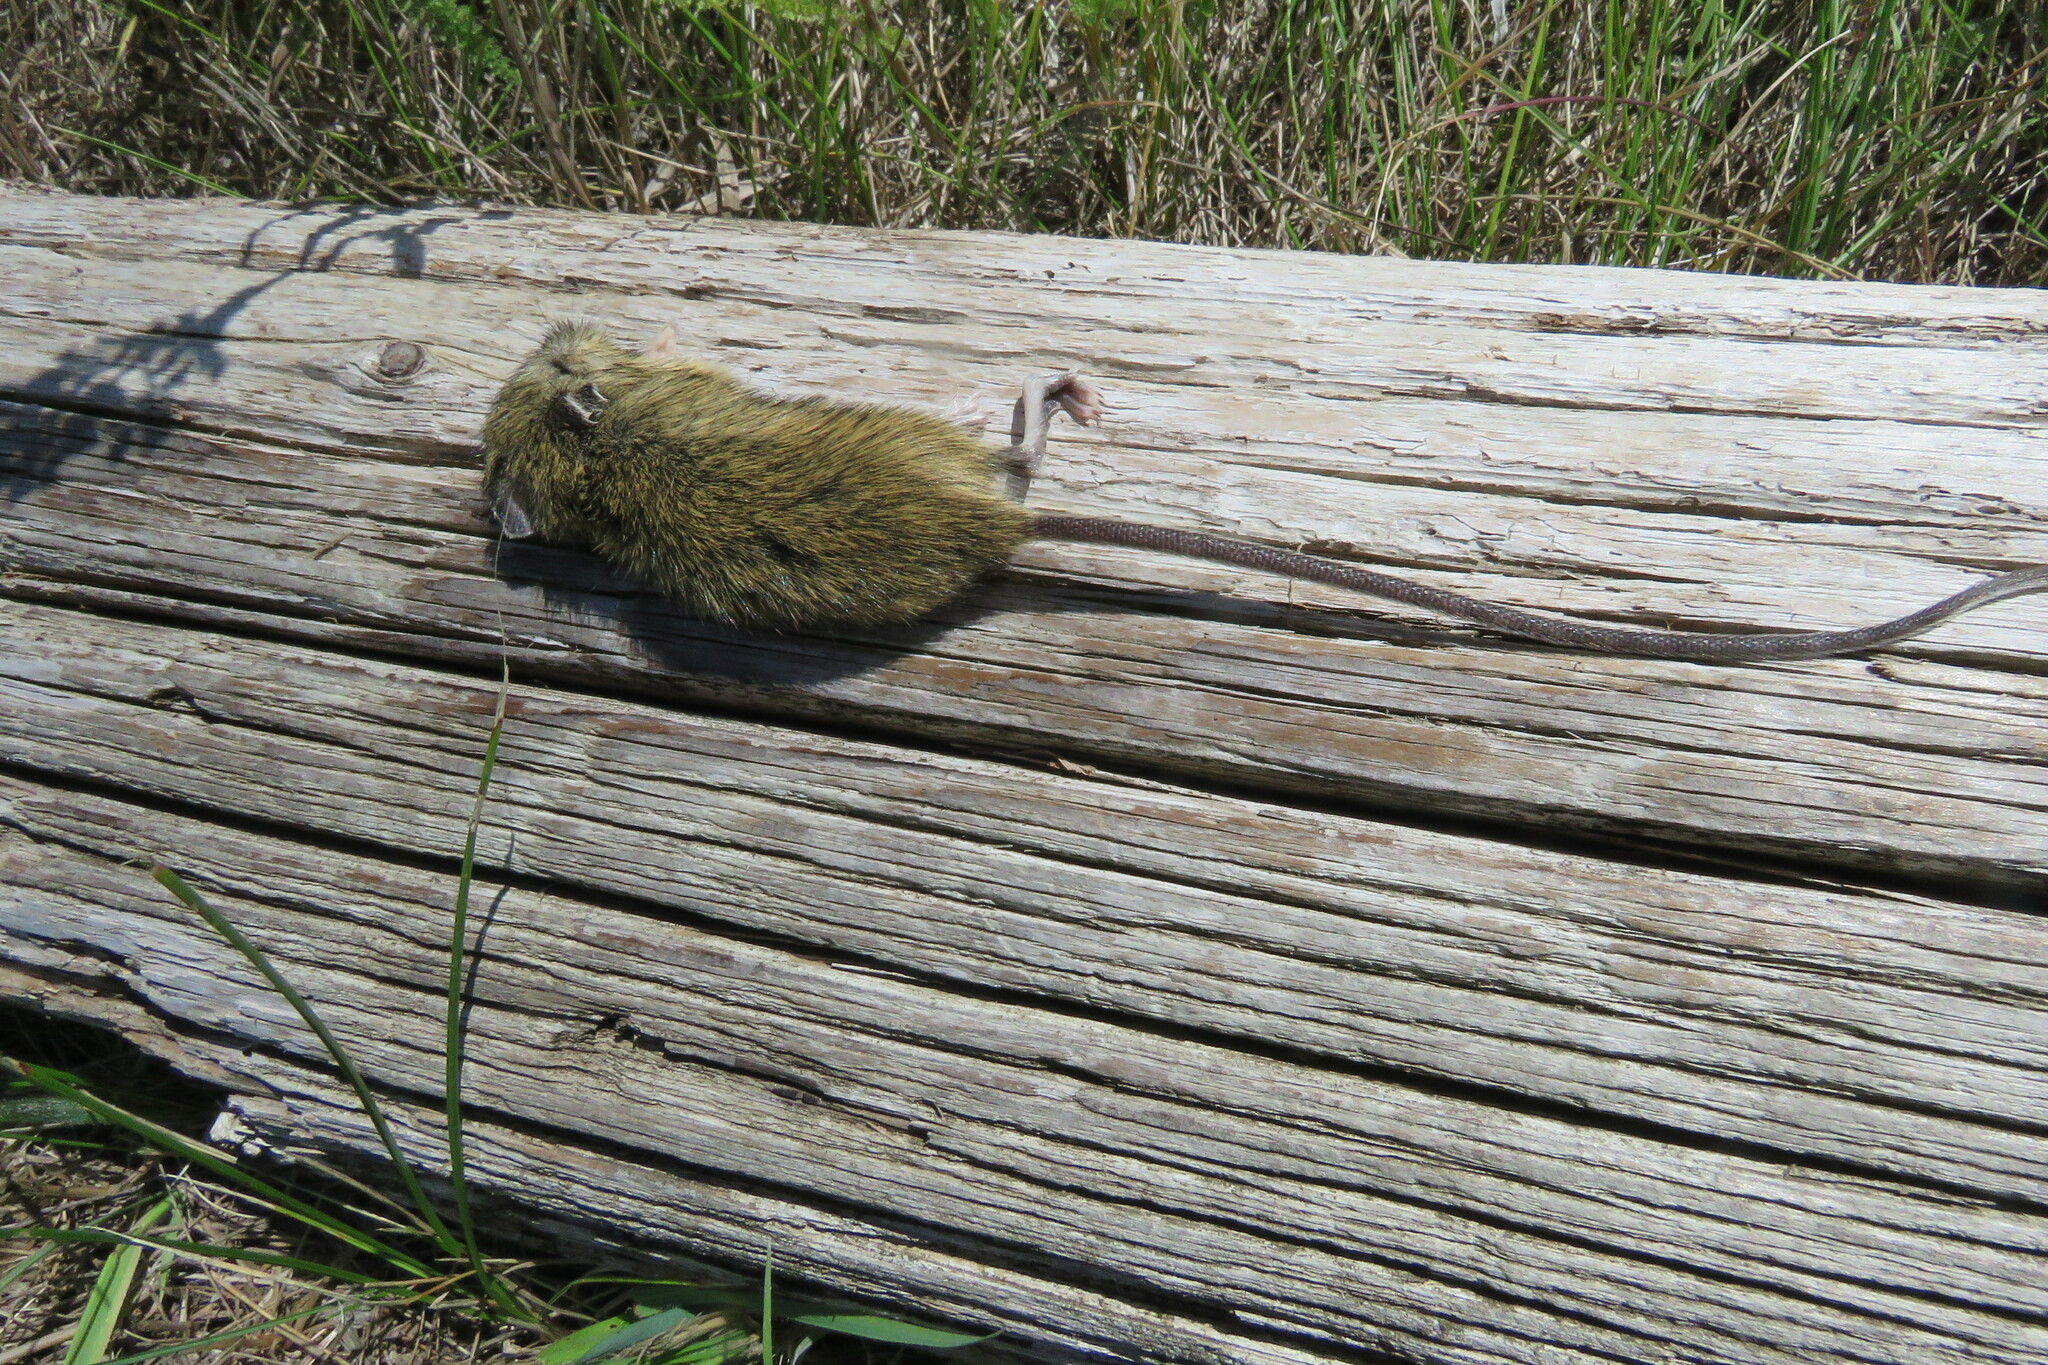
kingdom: Animalia
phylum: Chordata
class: Mammalia
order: Rodentia
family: Dipodidae
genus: Zapus
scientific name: Zapus princeps
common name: Western jumping mouse
